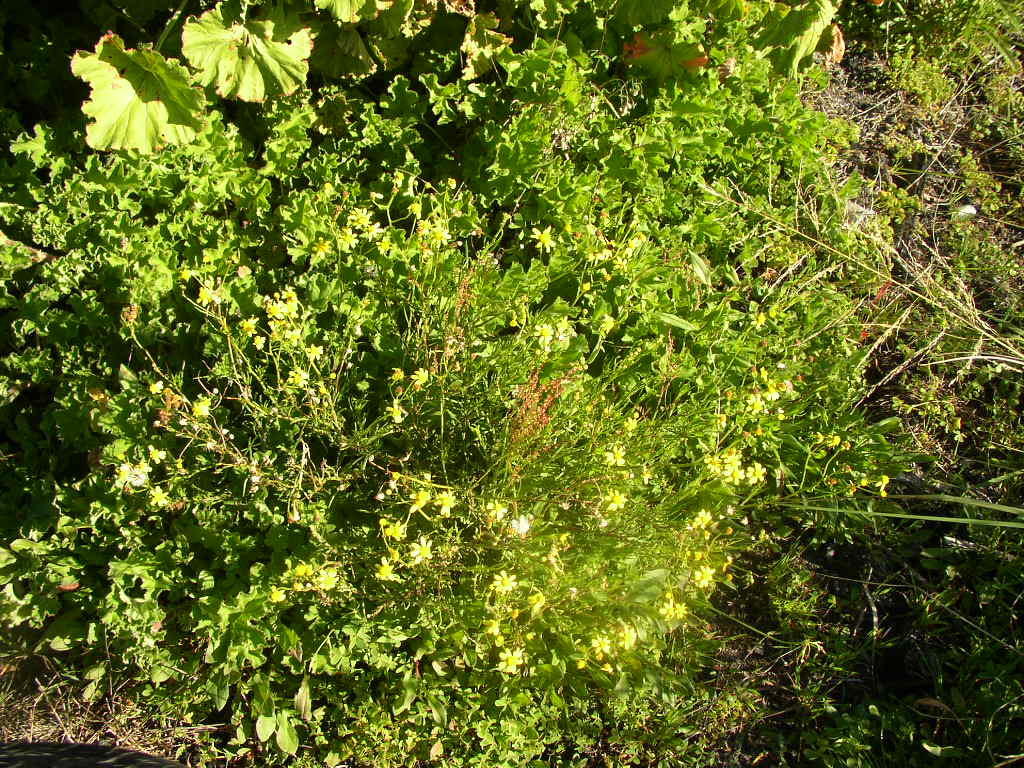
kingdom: Plantae
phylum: Tracheophyta
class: Magnoliopsida
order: Asterales
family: Asteraceae
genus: Senecio
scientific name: Senecio burchellii
